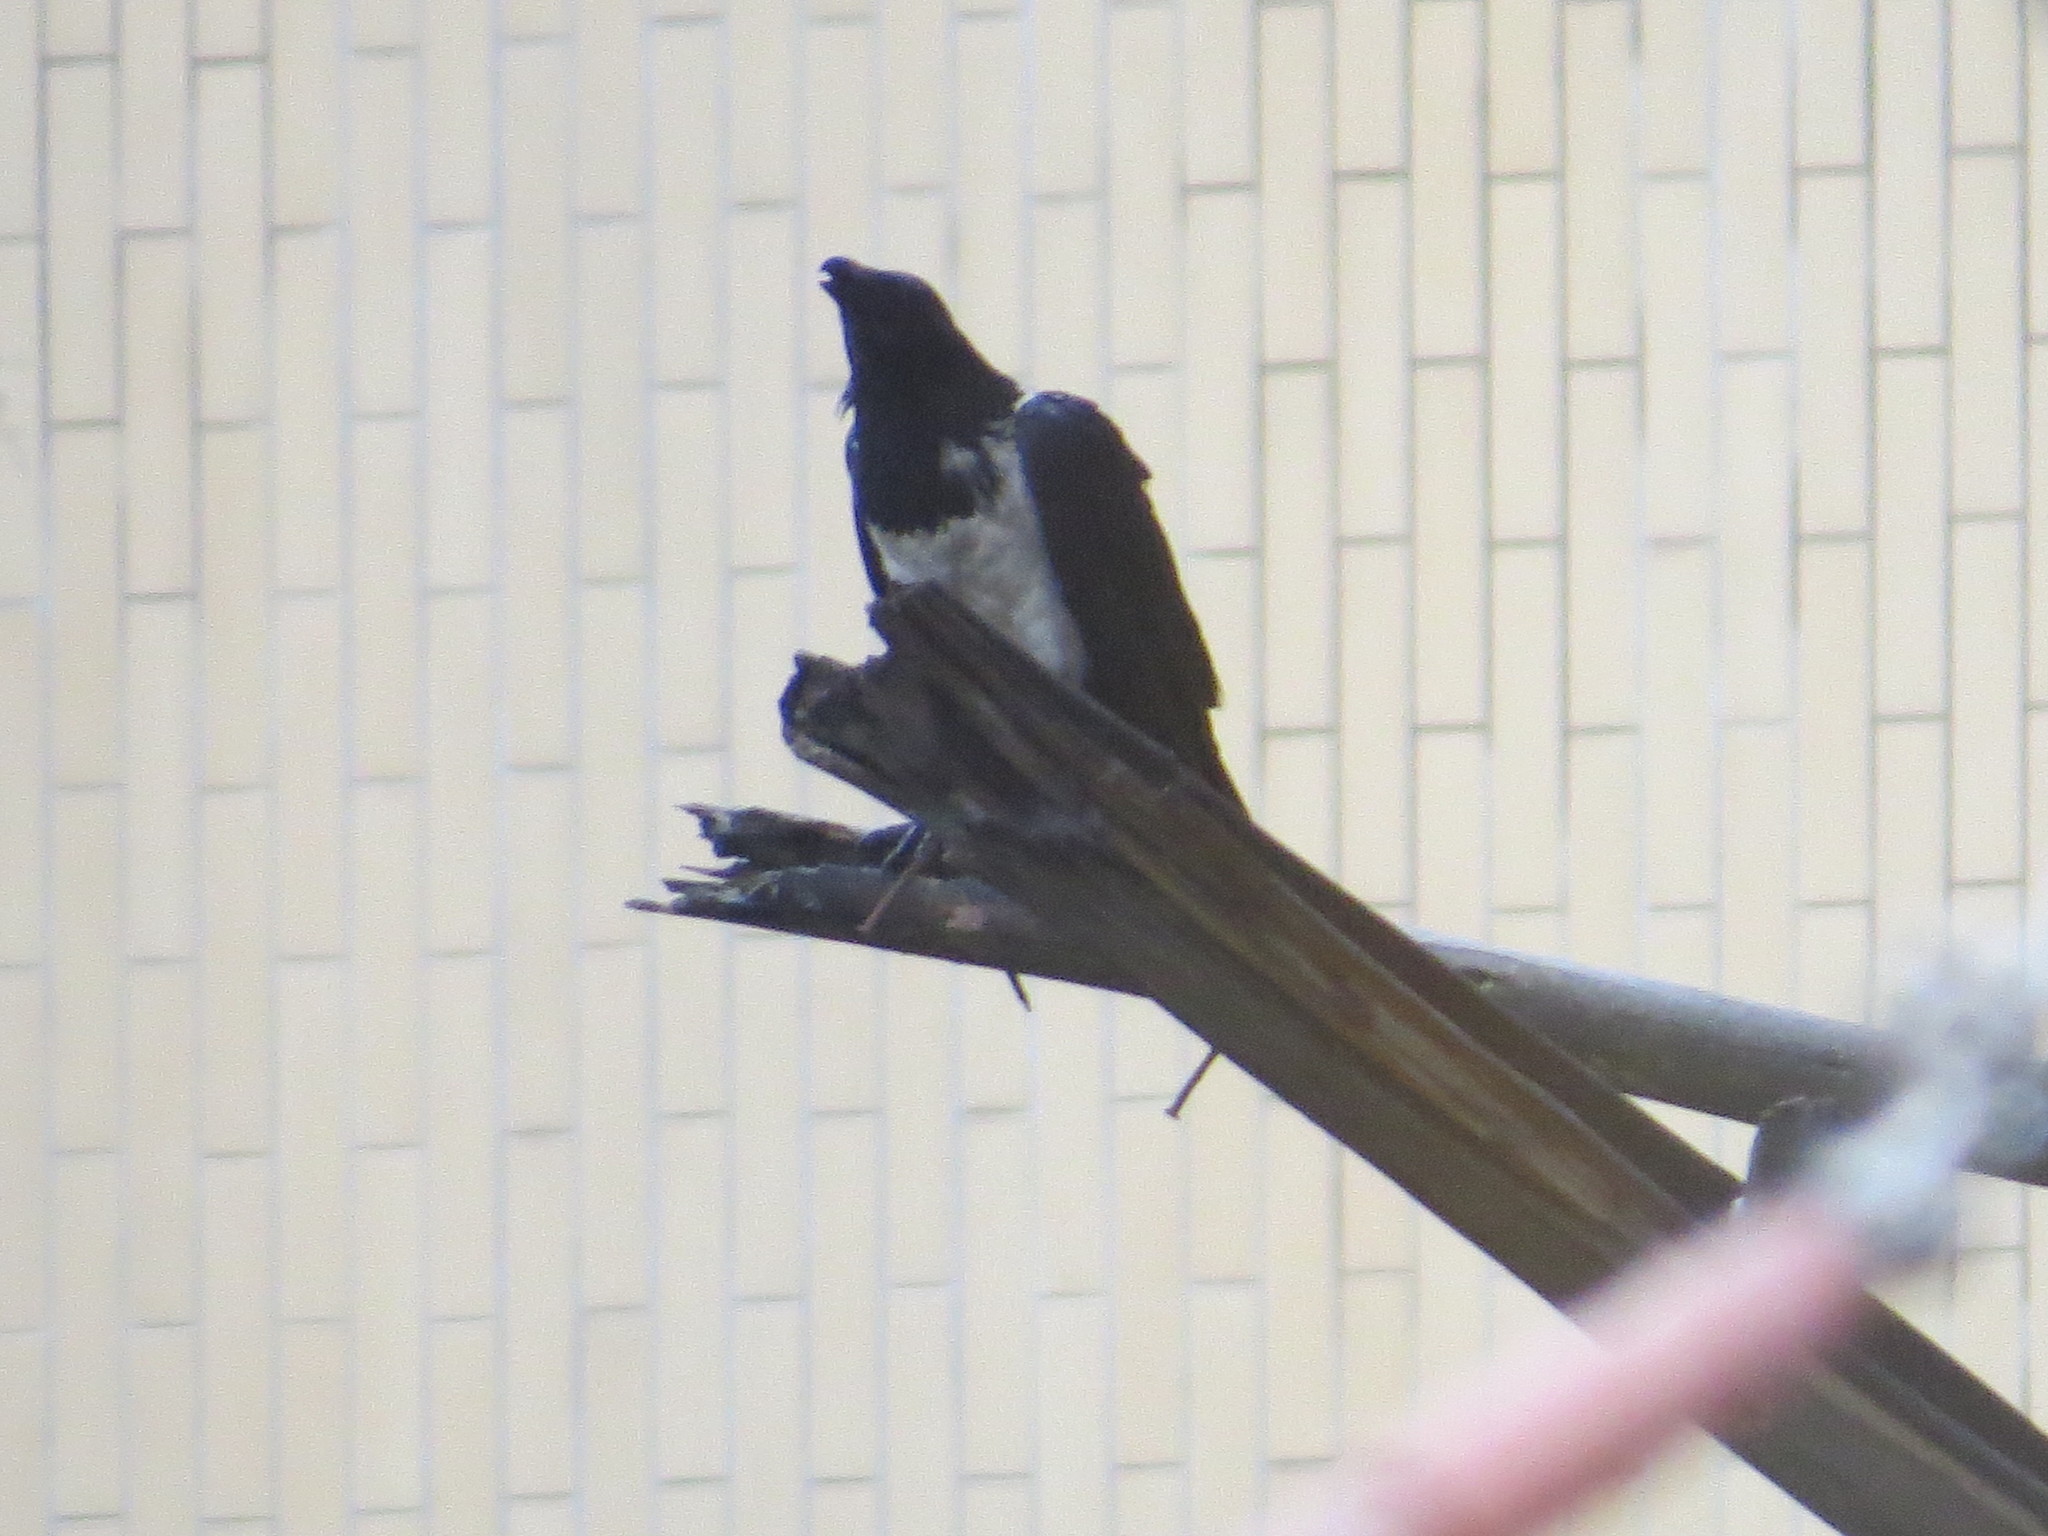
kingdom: Animalia
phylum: Chordata
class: Aves
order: Passeriformes
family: Corvidae
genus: Corvus
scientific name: Corvus albus
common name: Pied crow
